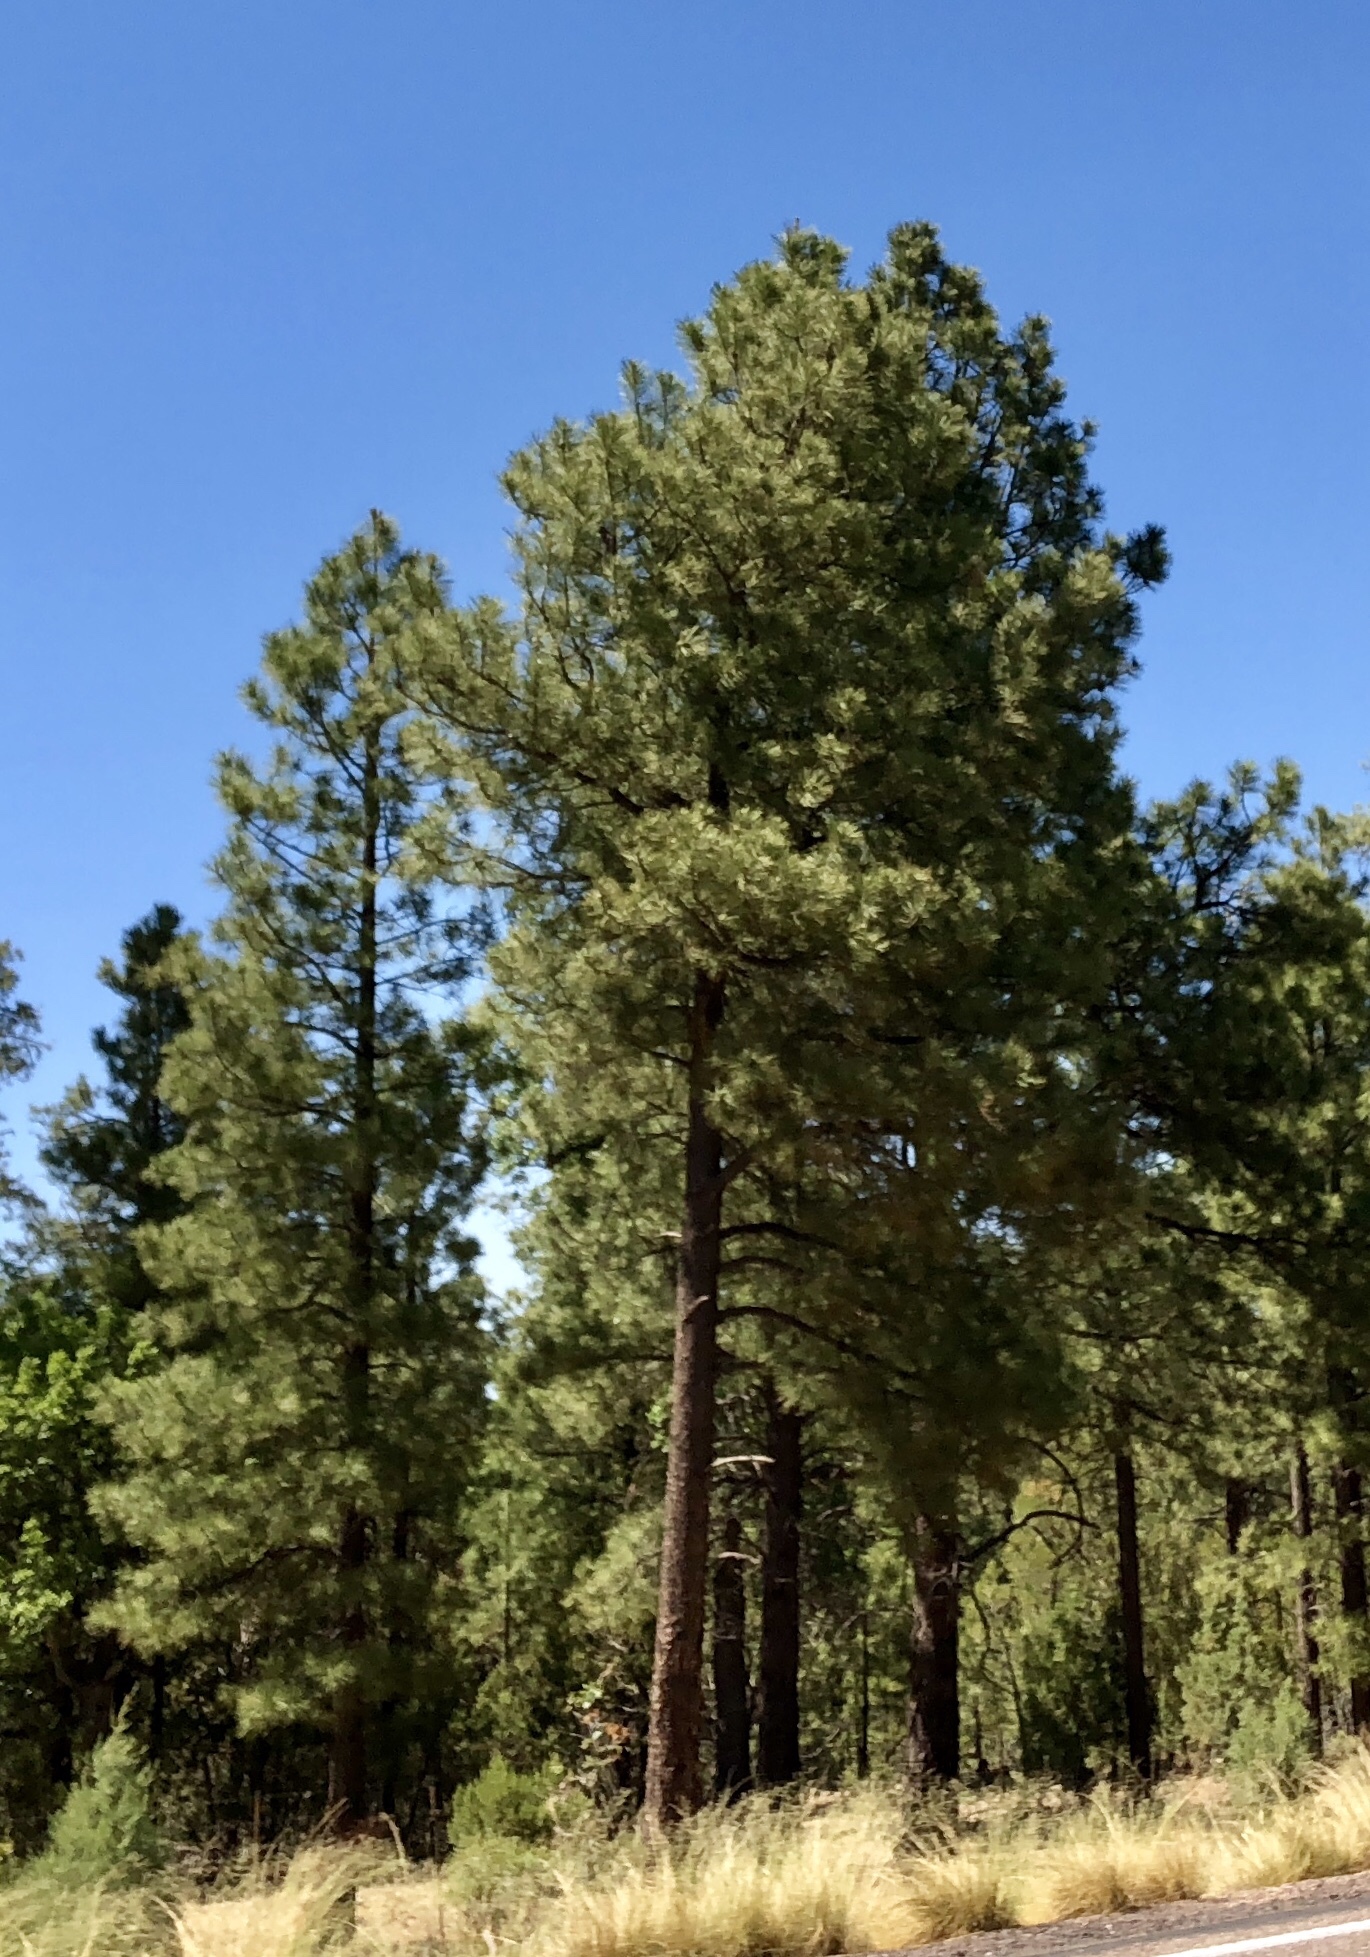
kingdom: Plantae
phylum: Tracheophyta
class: Pinopsida
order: Pinales
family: Pinaceae
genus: Pinus
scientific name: Pinus ponderosa
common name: Western yellow-pine
